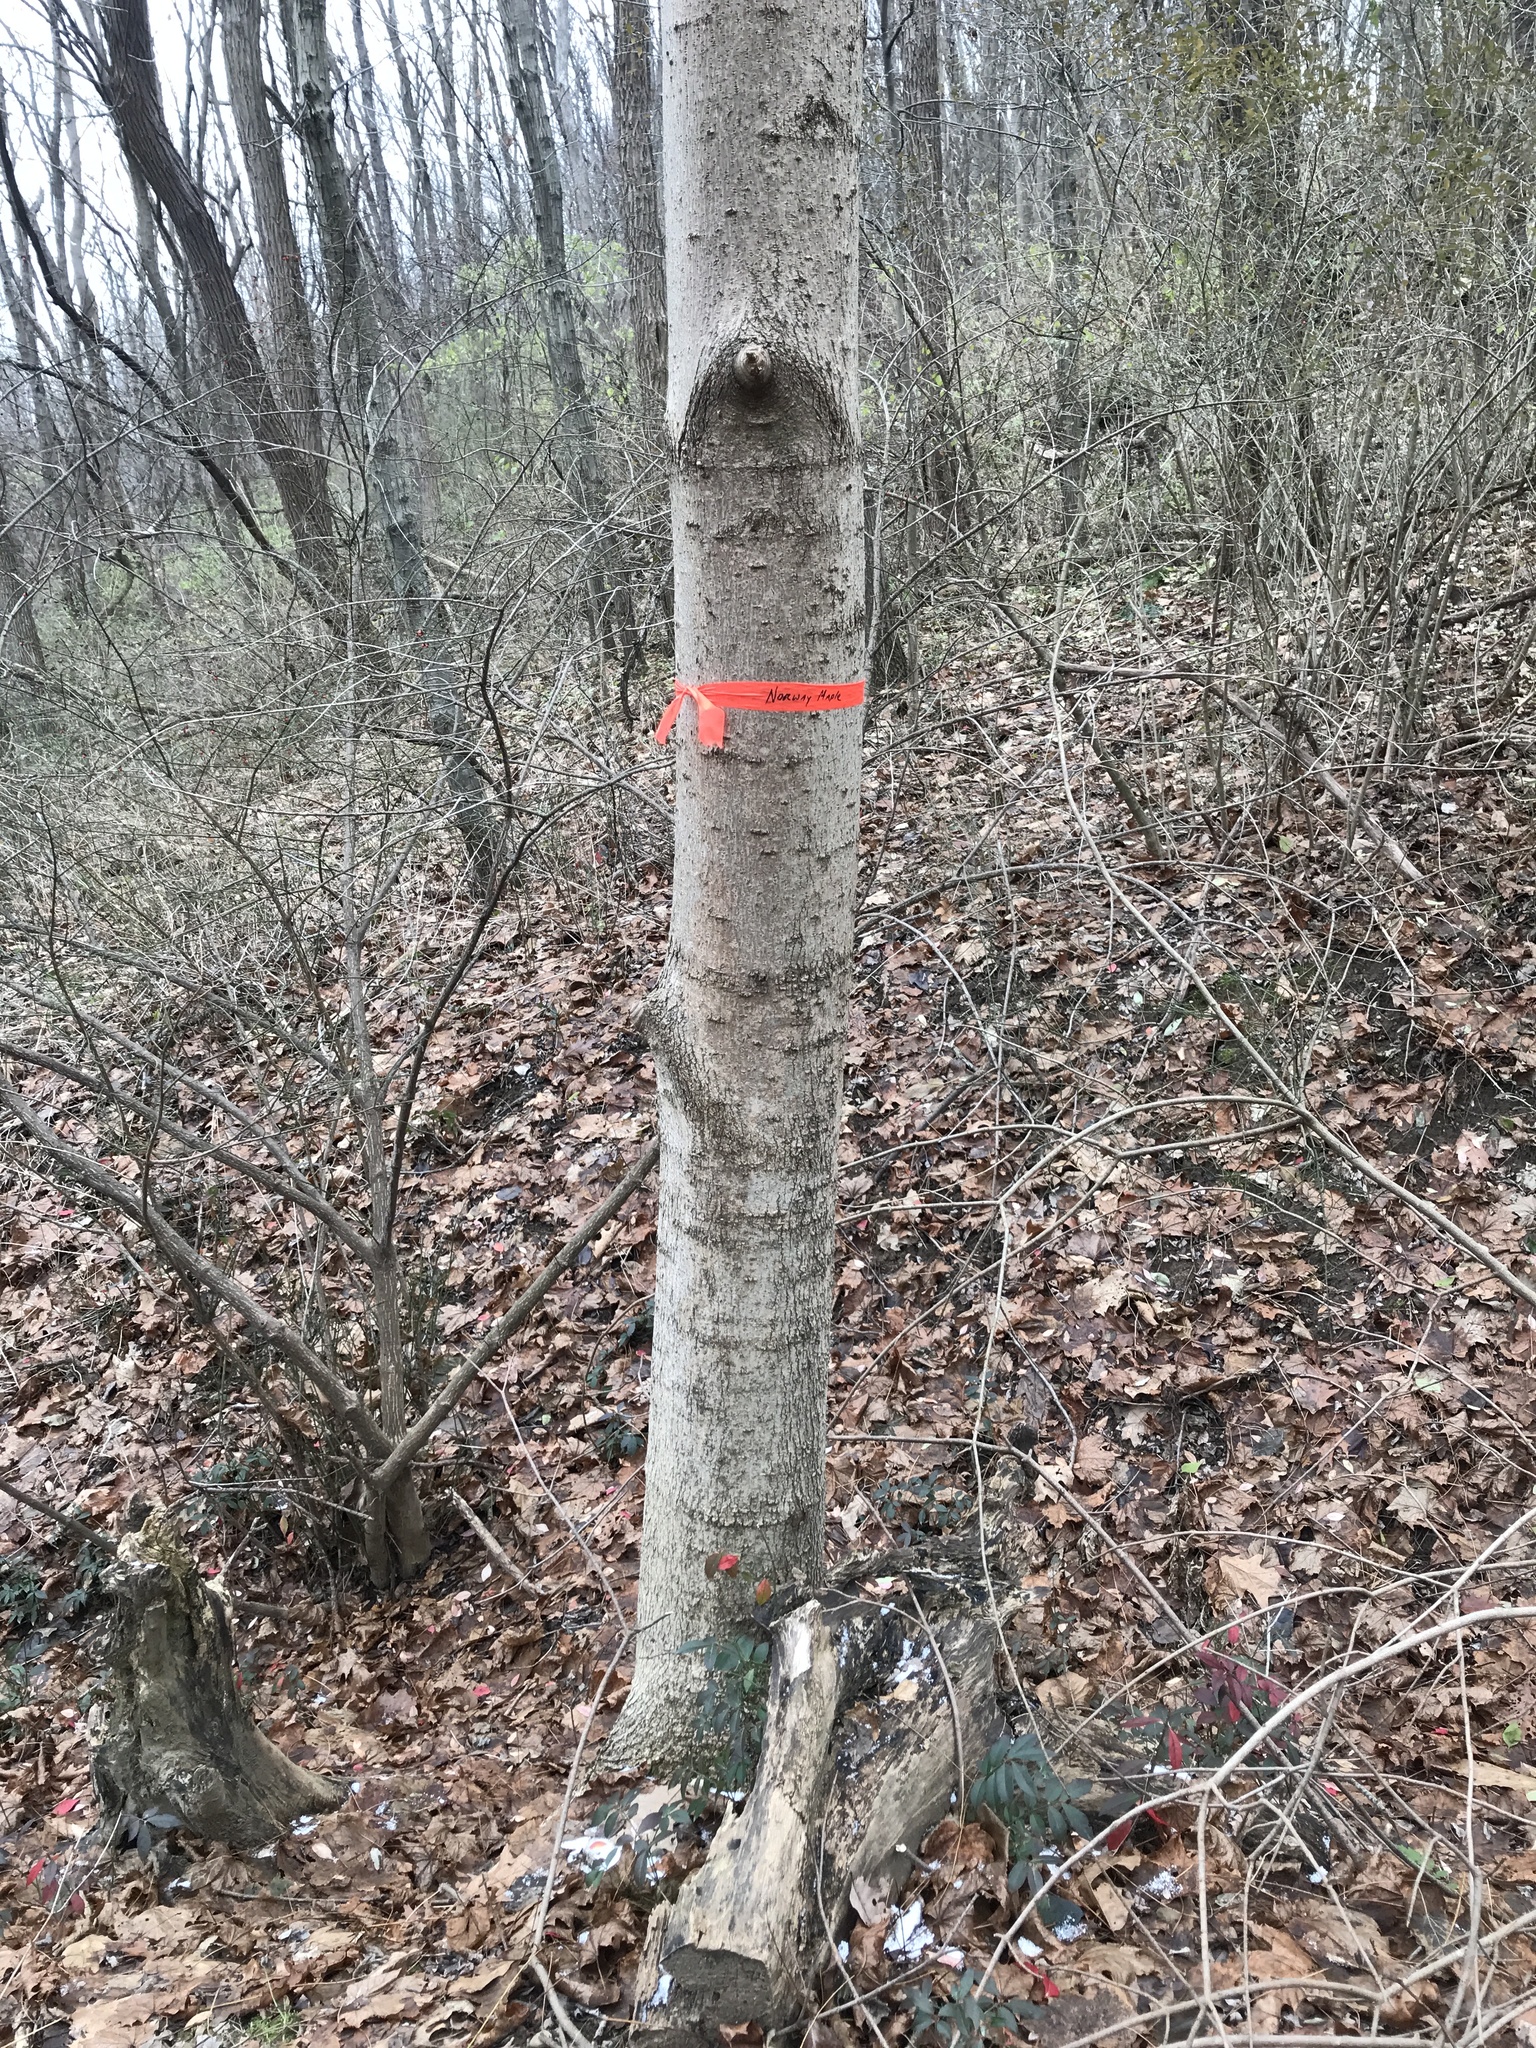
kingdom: Plantae
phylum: Tracheophyta
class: Magnoliopsida
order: Sapindales
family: Sapindaceae
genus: Acer
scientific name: Acer platanoides
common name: Norway maple
